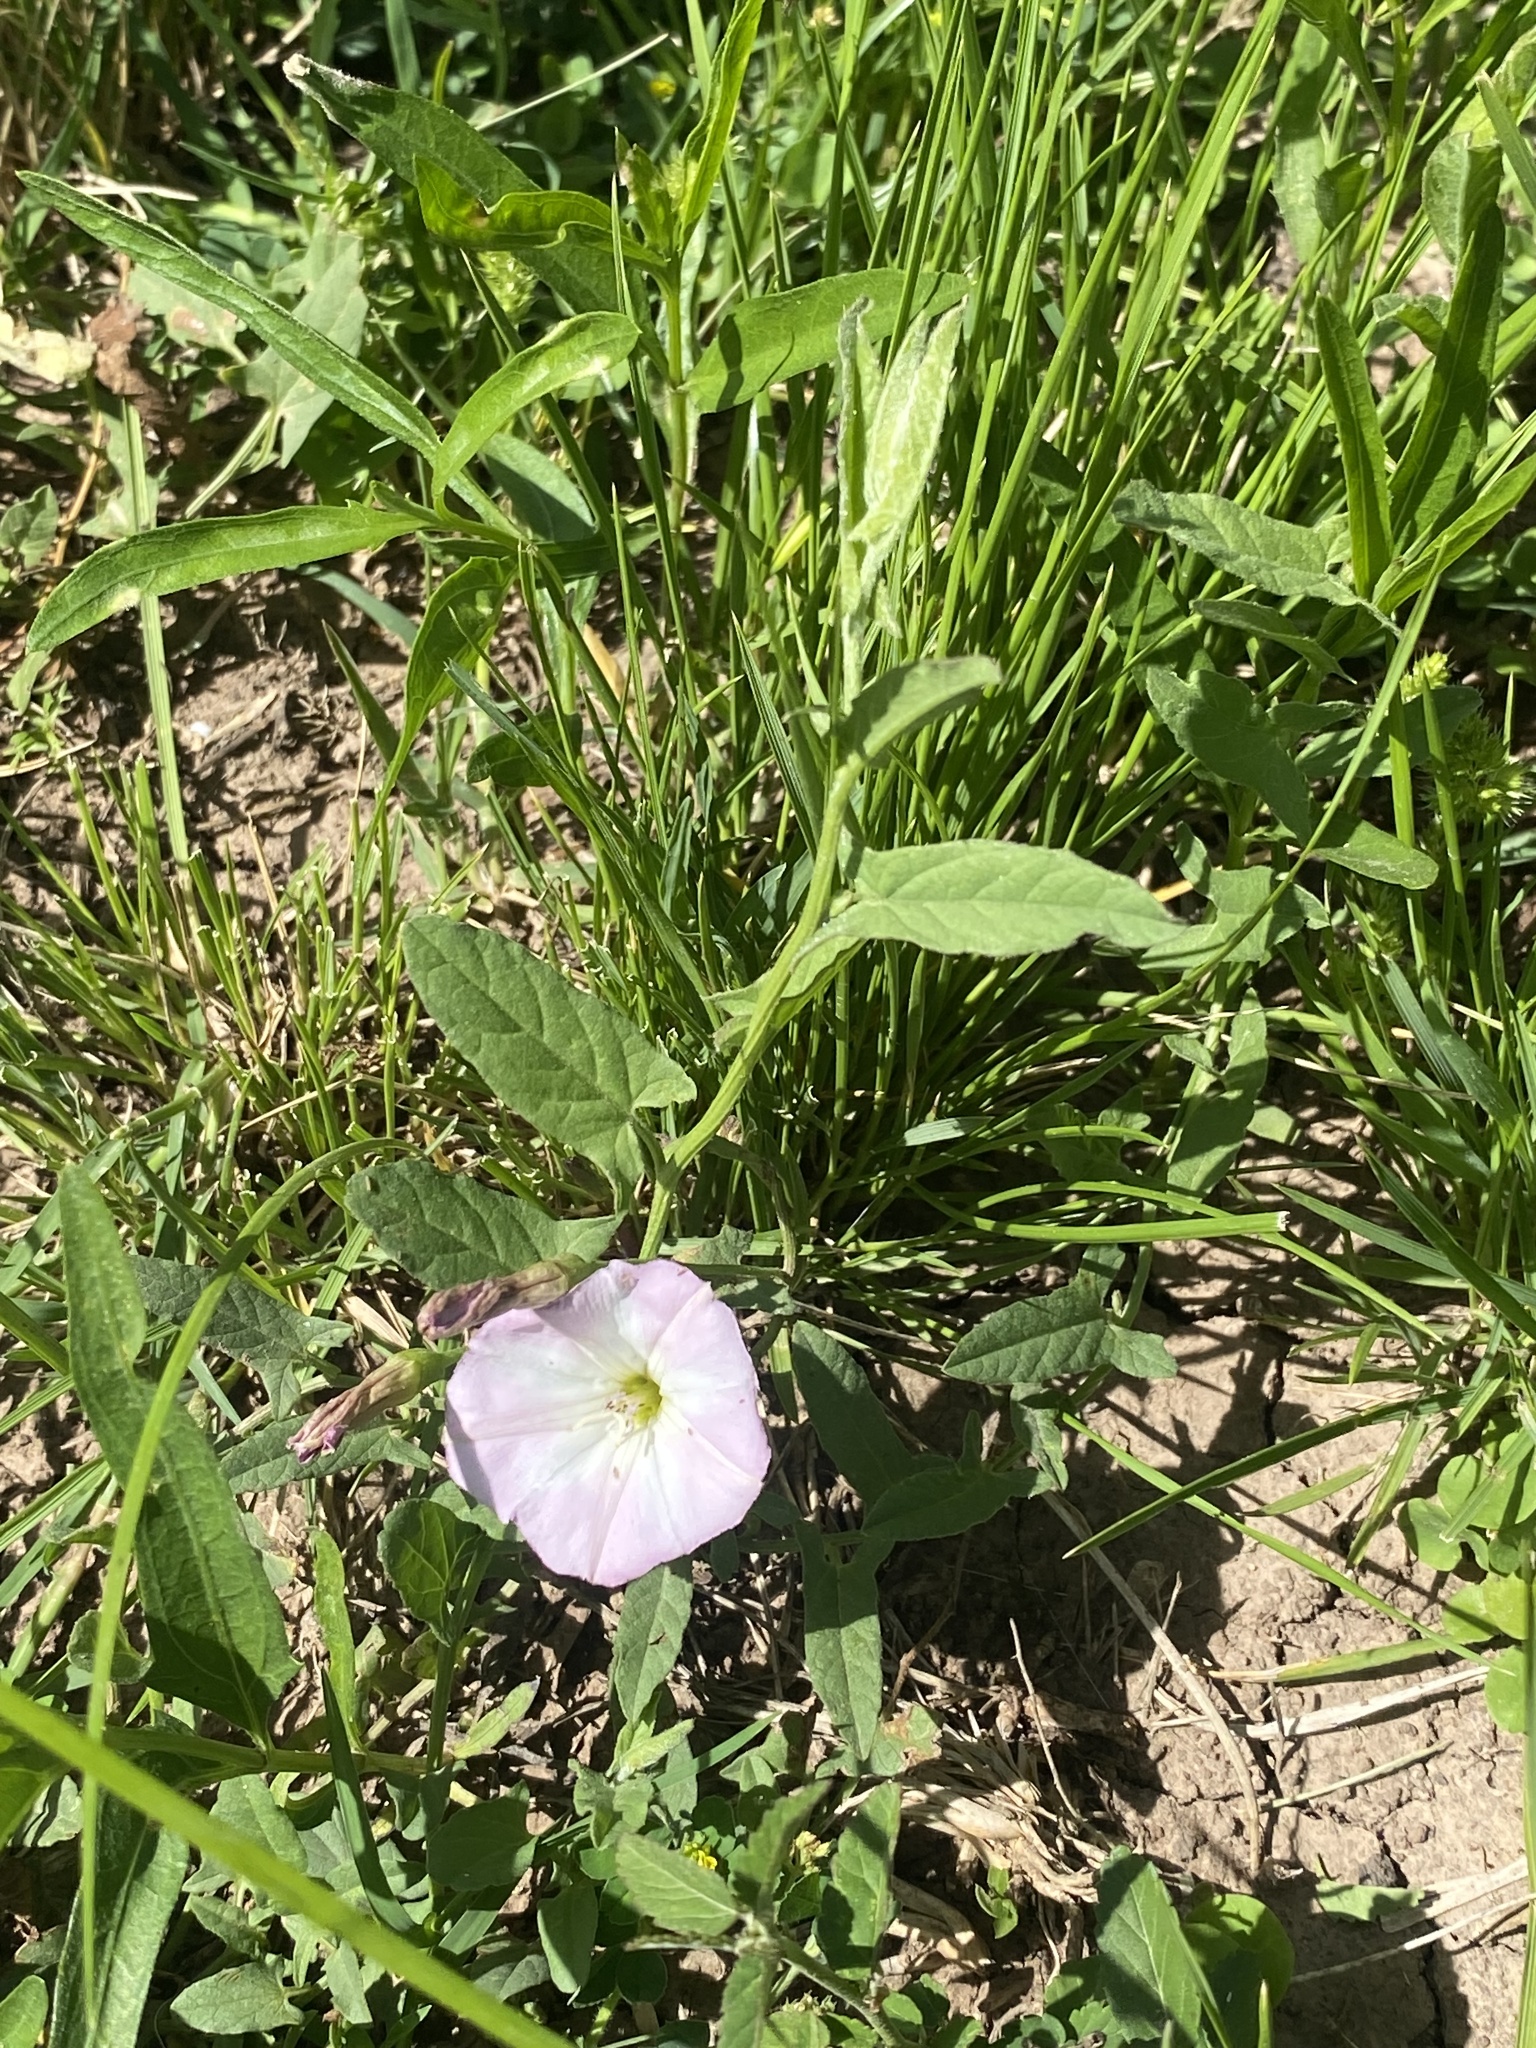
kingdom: Plantae
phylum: Tracheophyta
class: Magnoliopsida
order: Solanales
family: Convolvulaceae
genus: Convolvulus
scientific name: Convolvulus arvensis
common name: Field bindweed
